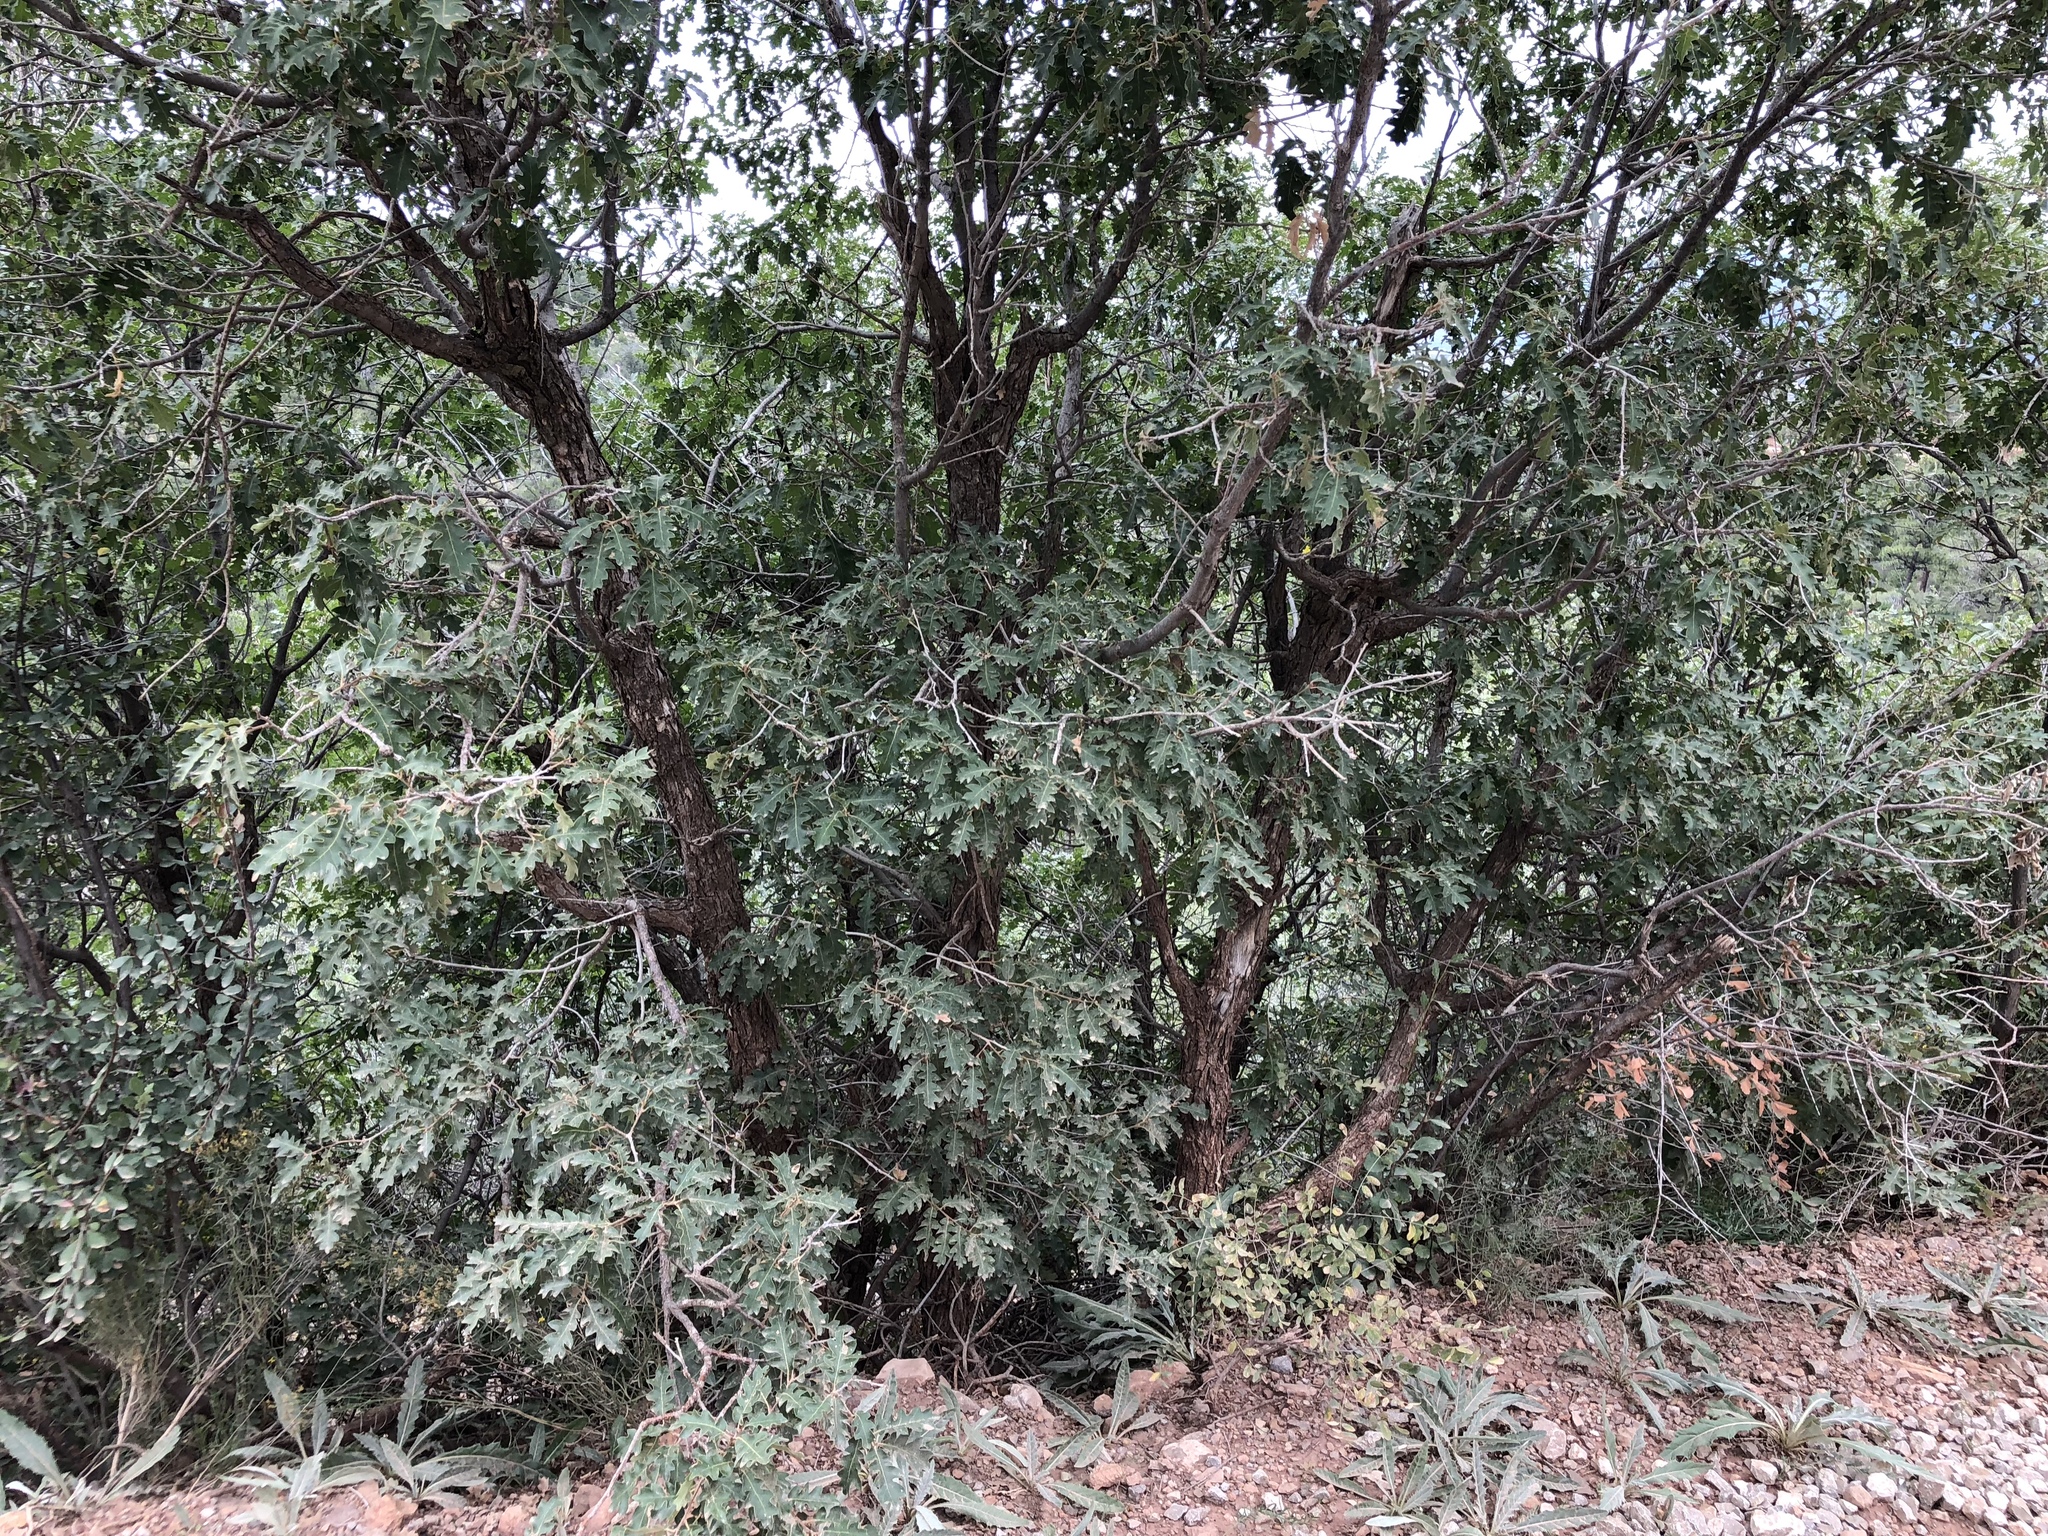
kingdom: Plantae
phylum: Tracheophyta
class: Magnoliopsida
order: Fagales
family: Fagaceae
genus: Quercus
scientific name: Quercus undulata
